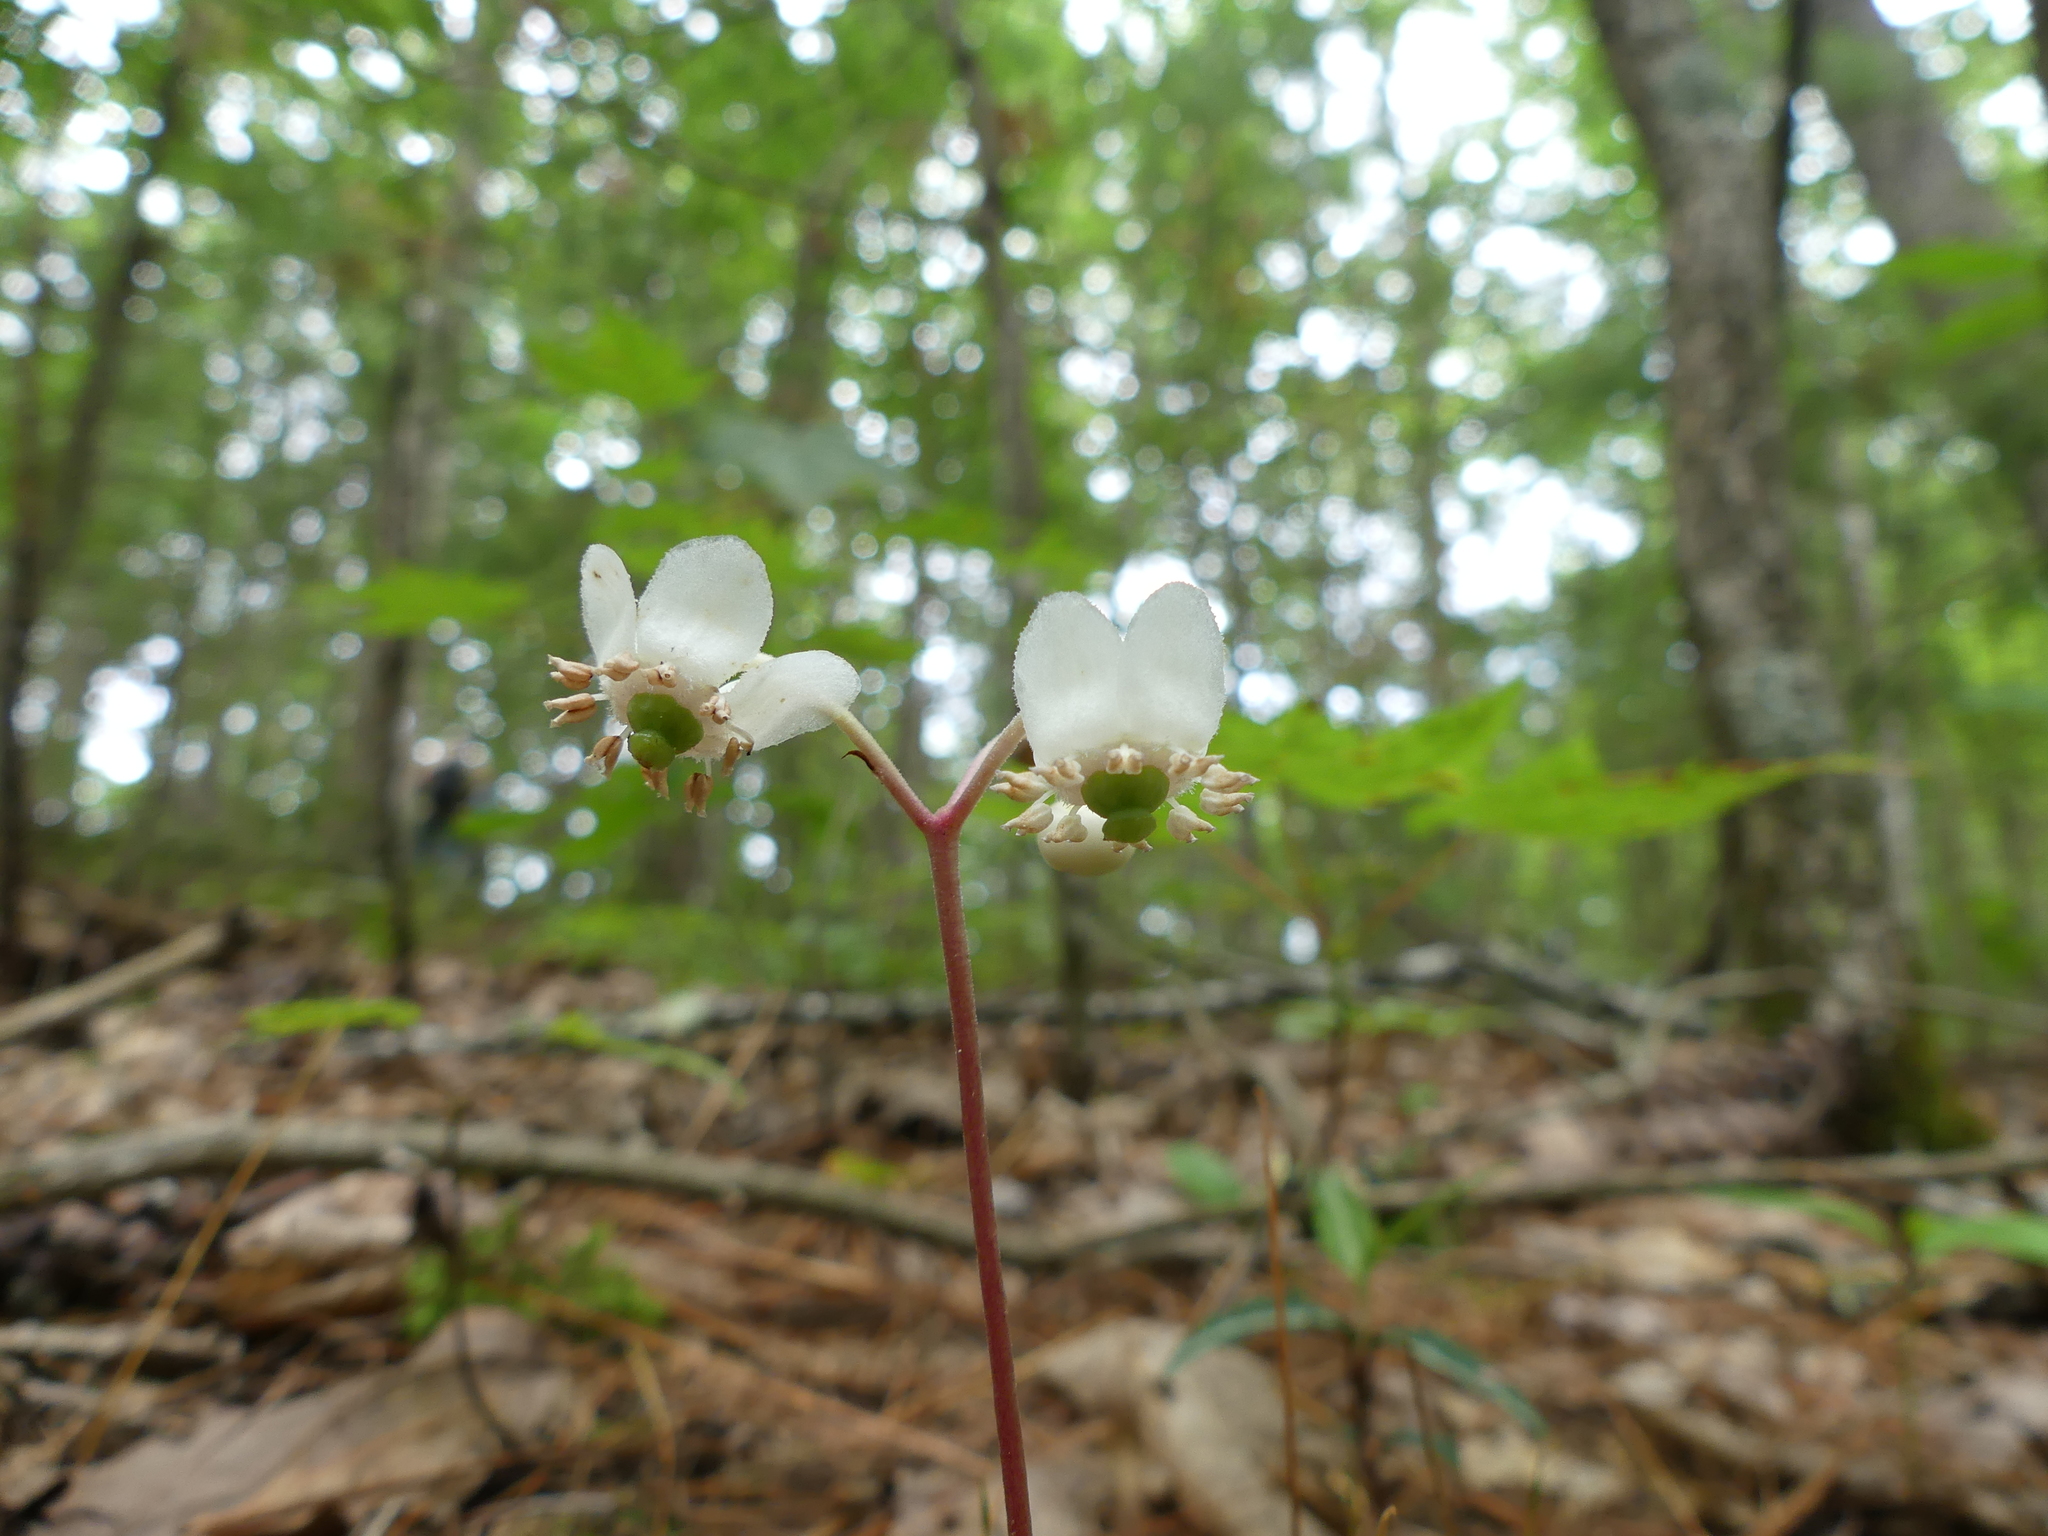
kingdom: Plantae
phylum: Tracheophyta
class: Magnoliopsida
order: Ericales
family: Ericaceae
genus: Chimaphila
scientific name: Chimaphila maculata
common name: Spotted pipsissewa
